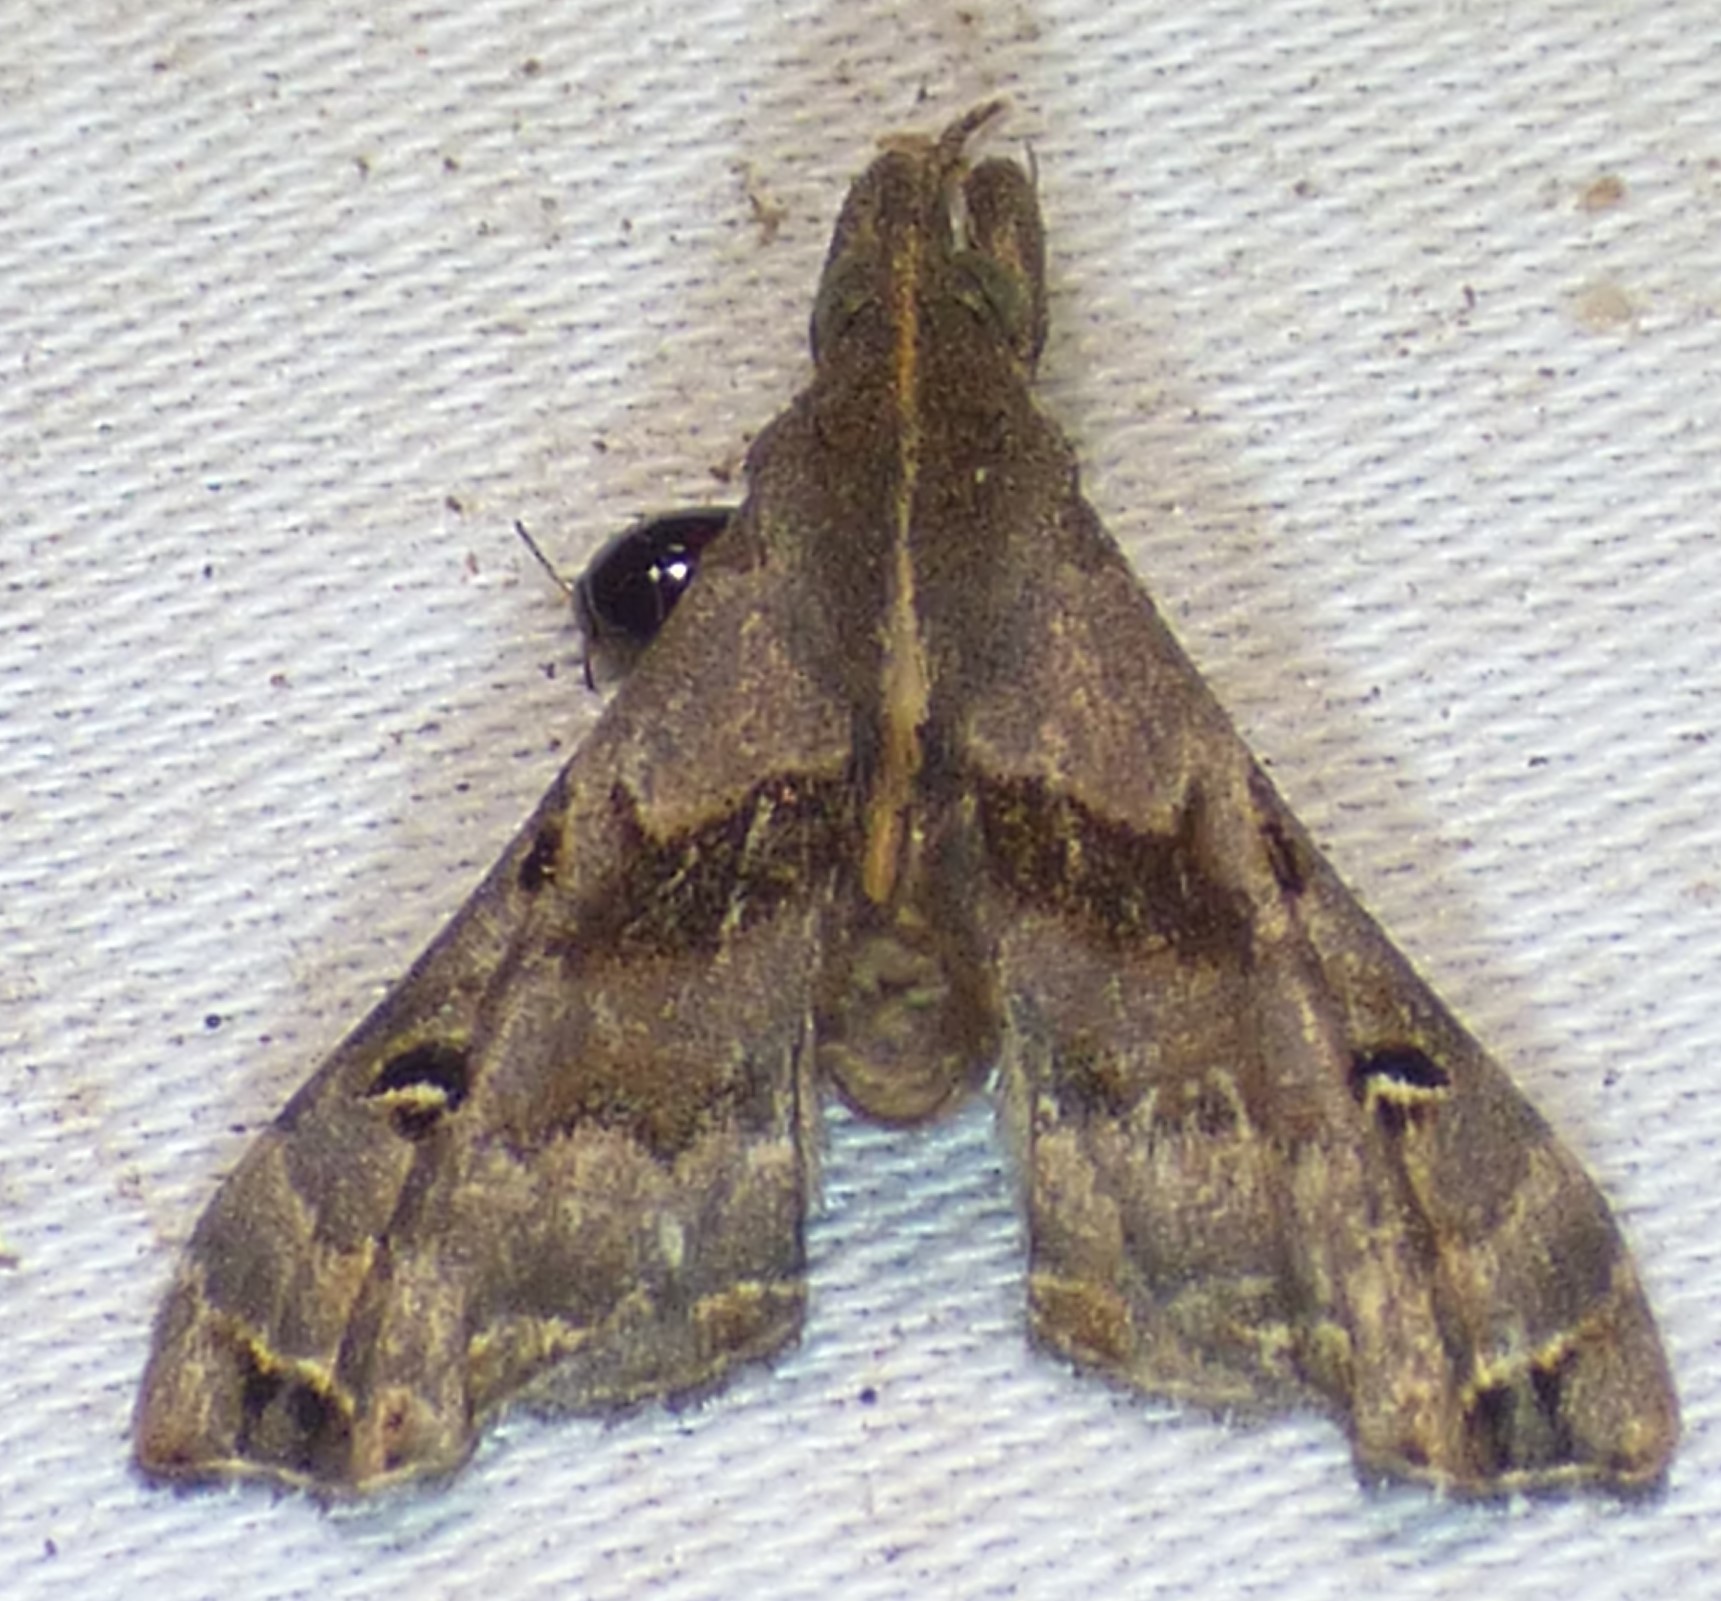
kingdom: Animalia
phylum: Arthropoda
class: Insecta
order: Lepidoptera
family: Erebidae
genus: Palthis
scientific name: Palthis asopialis
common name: Faint-spotted palthis moth
